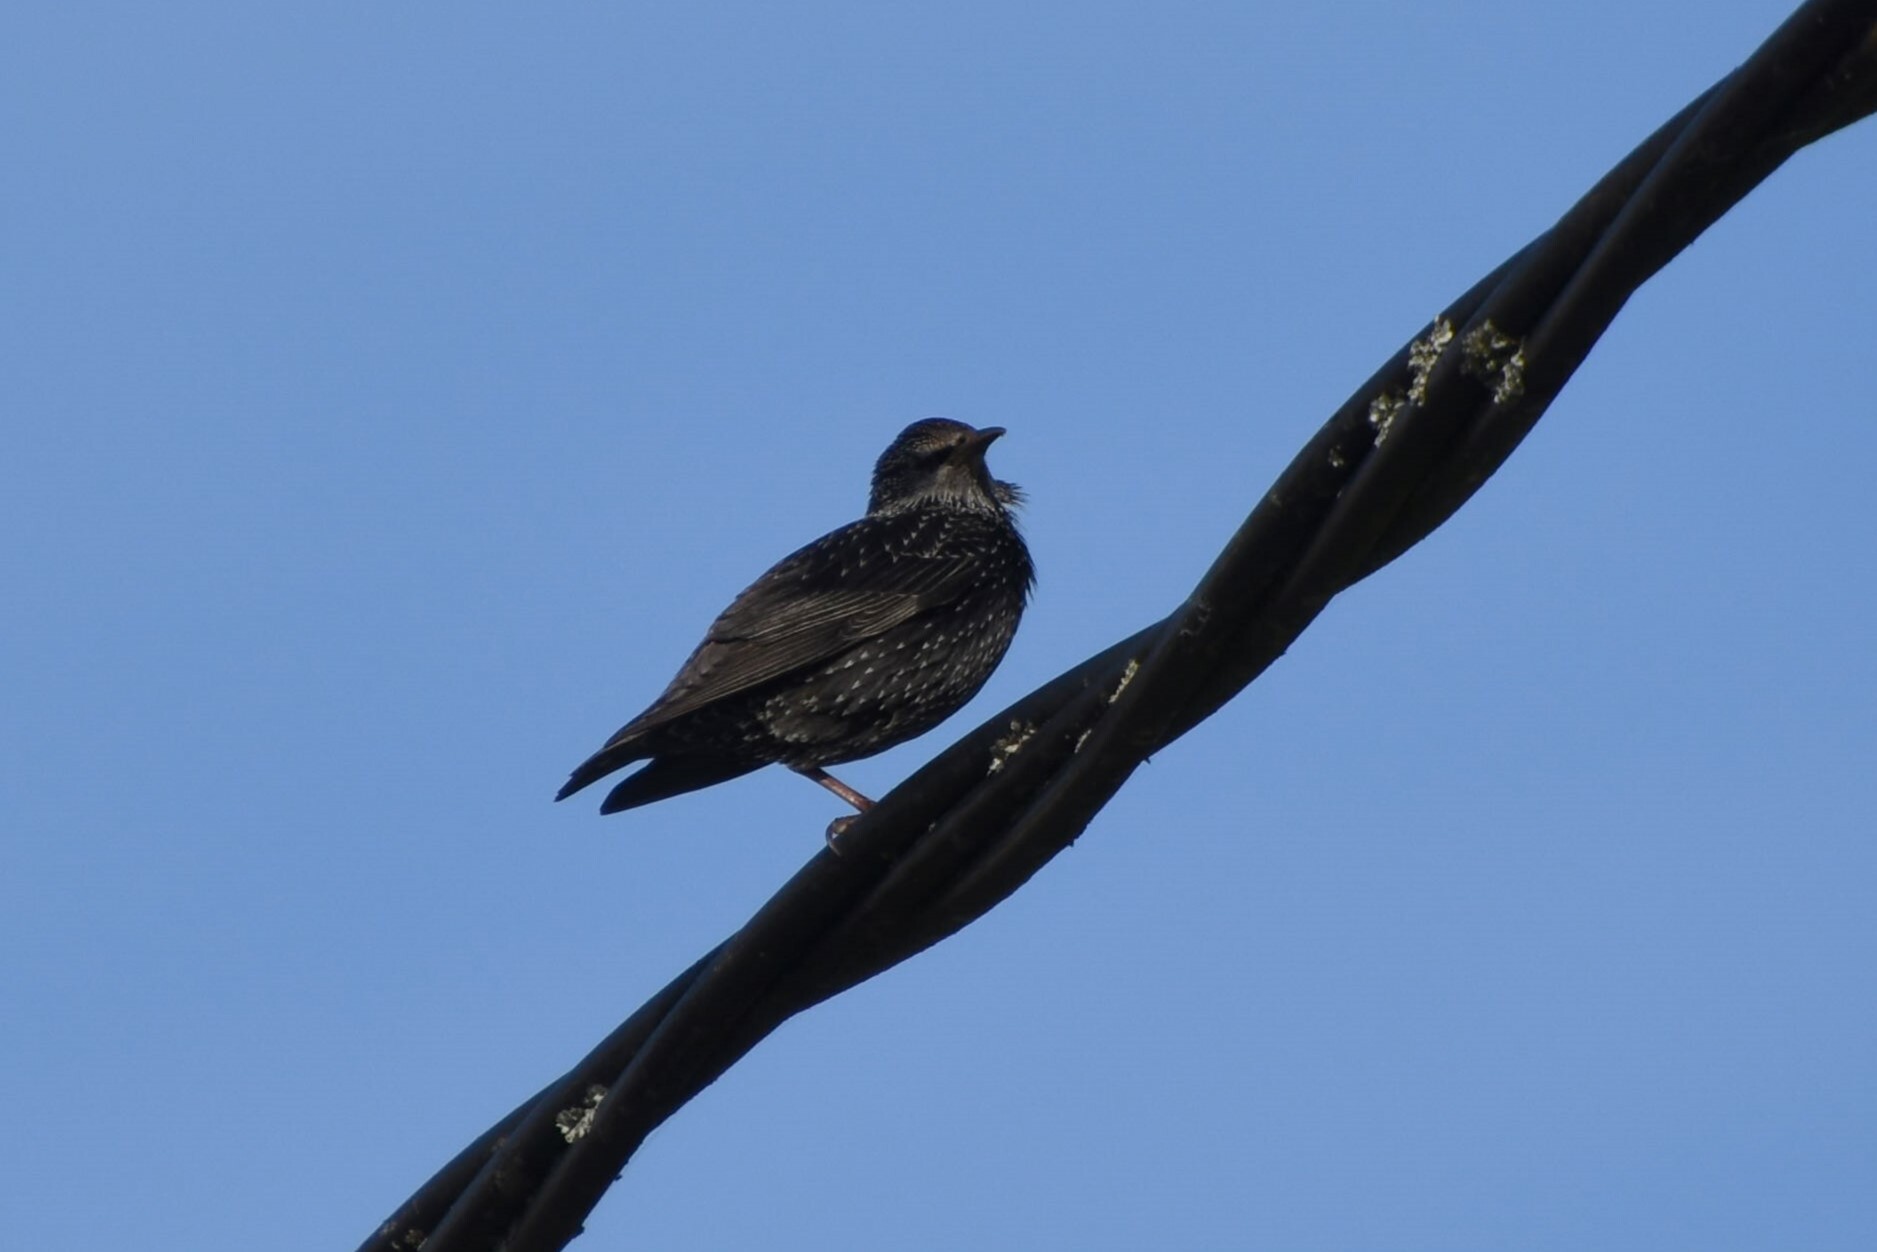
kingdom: Animalia
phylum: Chordata
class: Aves
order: Passeriformes
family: Sturnidae
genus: Sturnus
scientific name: Sturnus vulgaris
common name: Common starling
